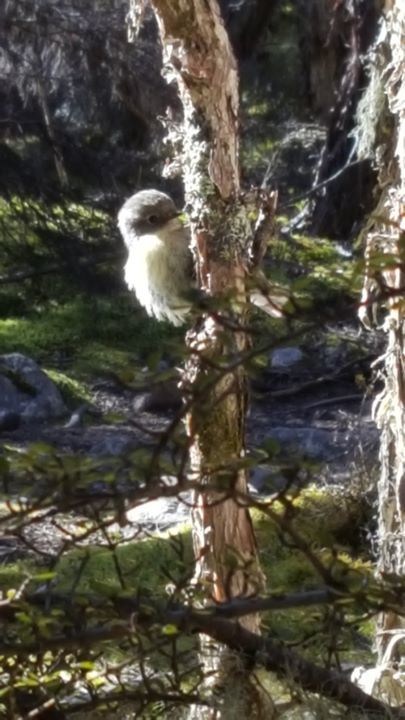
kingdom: Animalia
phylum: Chordata
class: Aves
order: Passeriformes
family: Petroicidae
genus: Petroica
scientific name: Petroica macrocephala
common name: Tomtit
